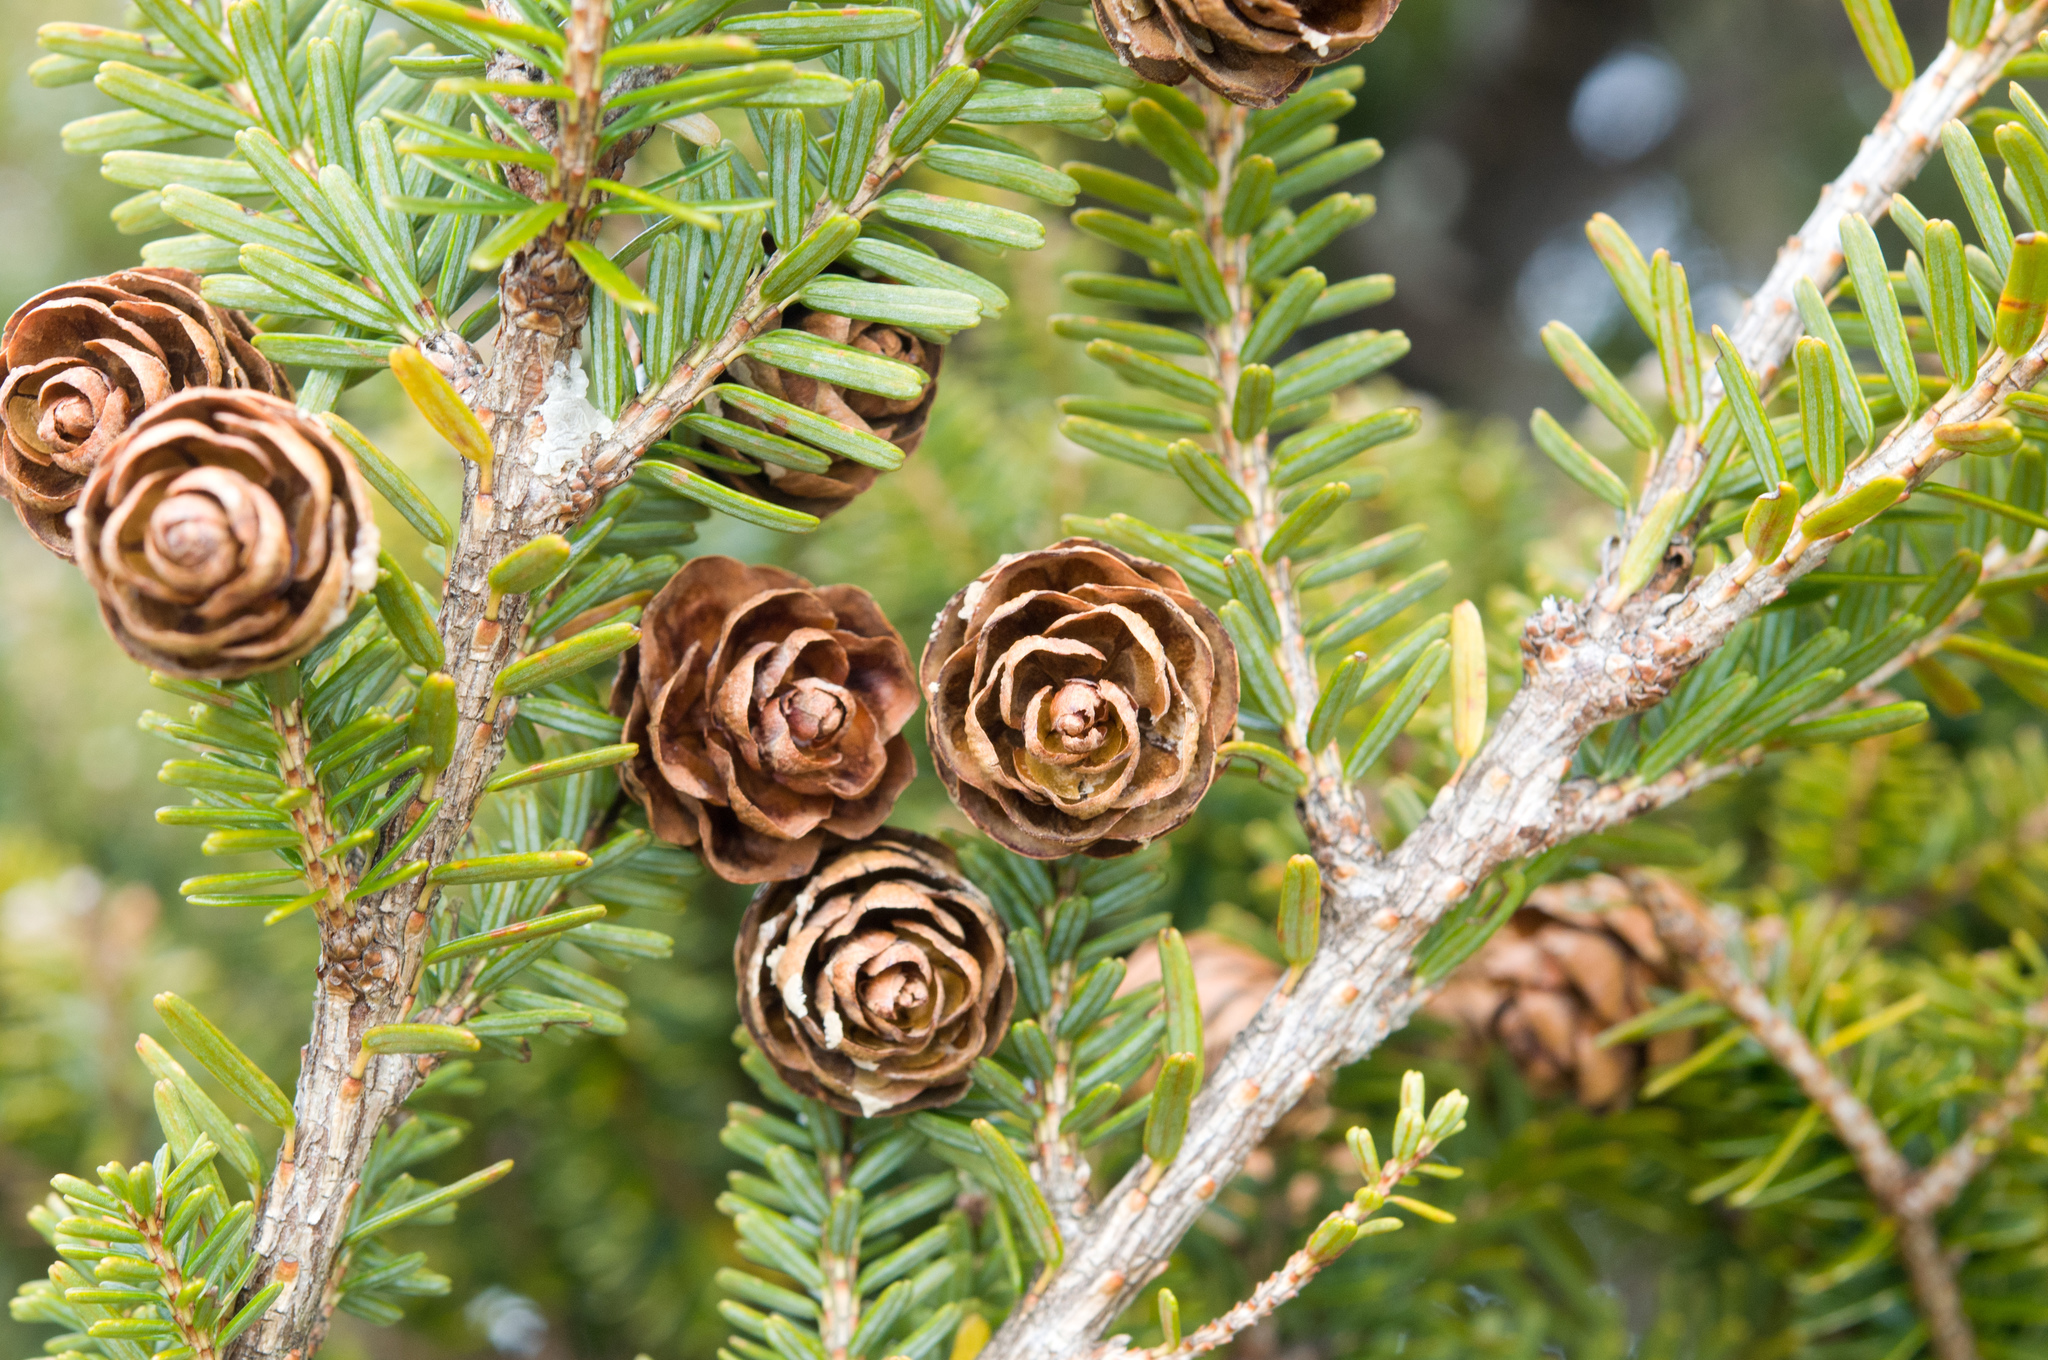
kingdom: Plantae
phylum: Tracheophyta
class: Pinopsida
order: Pinales
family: Pinaceae
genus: Tsuga
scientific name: Tsuga chinensis
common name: Chinese hemlock
